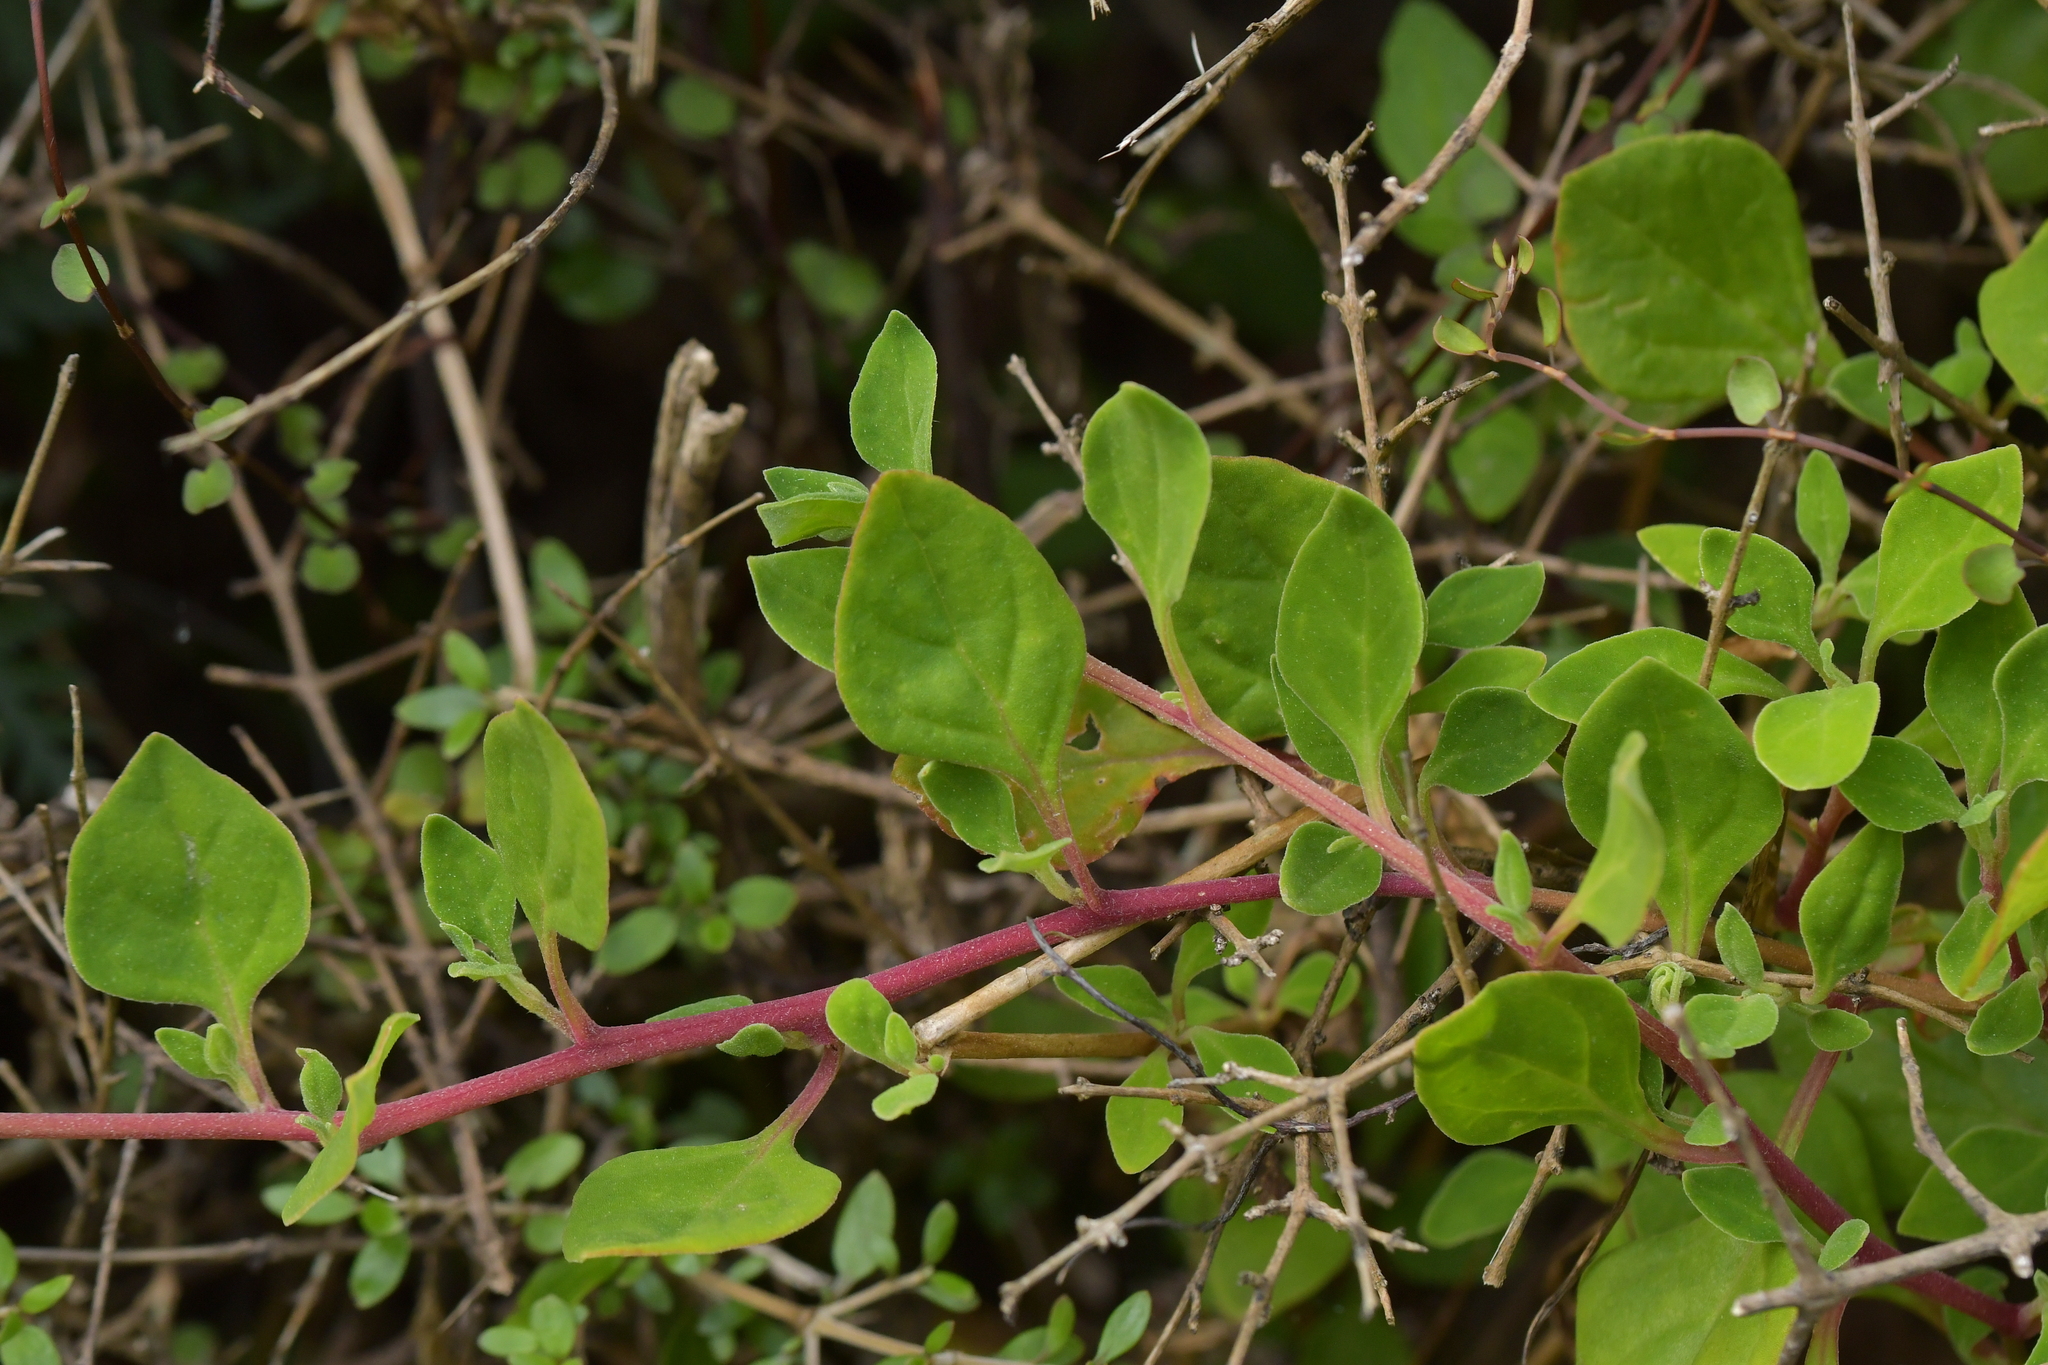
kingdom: Plantae
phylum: Tracheophyta
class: Magnoliopsida
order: Caryophyllales
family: Aizoaceae
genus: Tetragonia
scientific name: Tetragonia implexicoma
